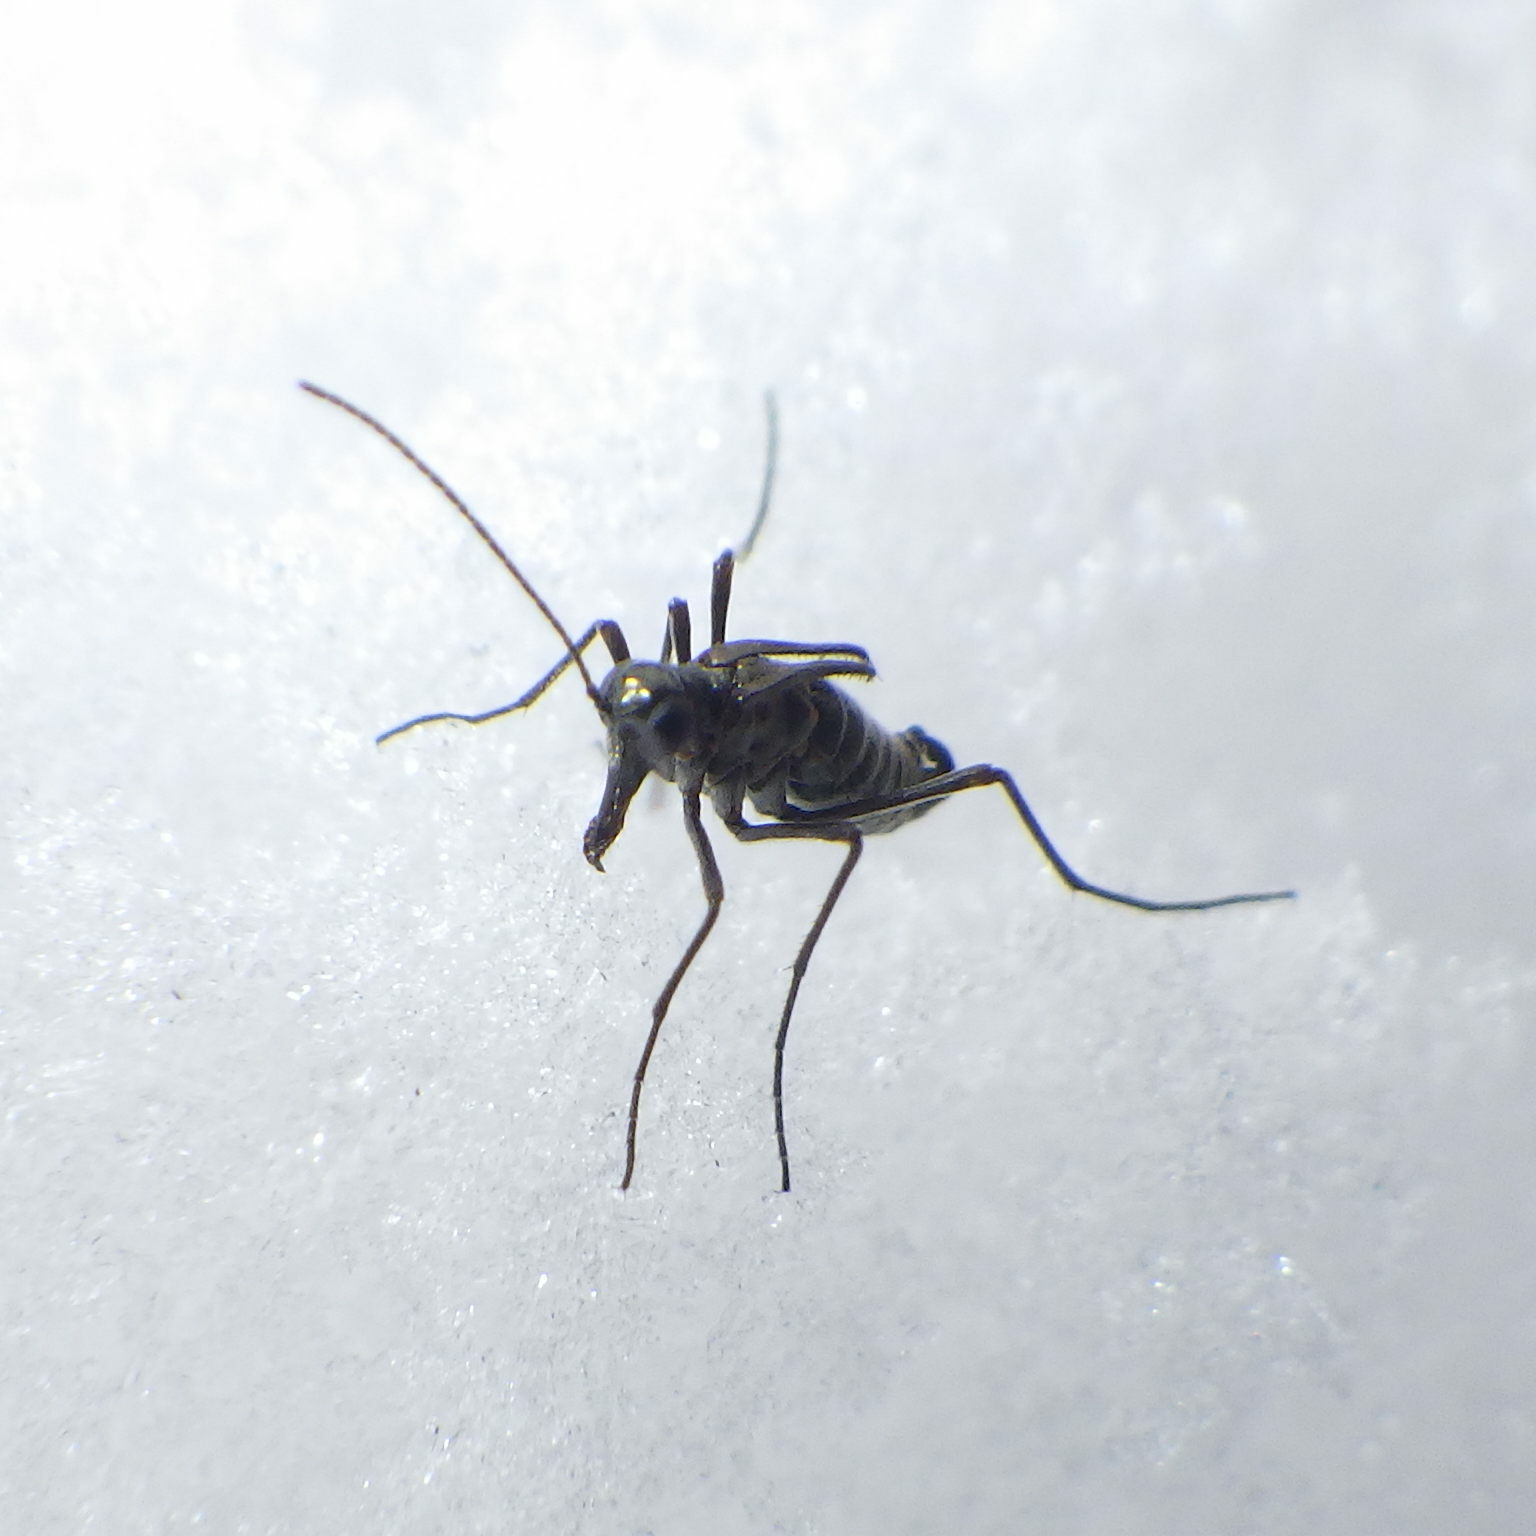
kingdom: Animalia
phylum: Arthropoda
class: Insecta
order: Mecoptera
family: Boreidae
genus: Boreus
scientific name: Boreus brumalis
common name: Mid-winter boreus
